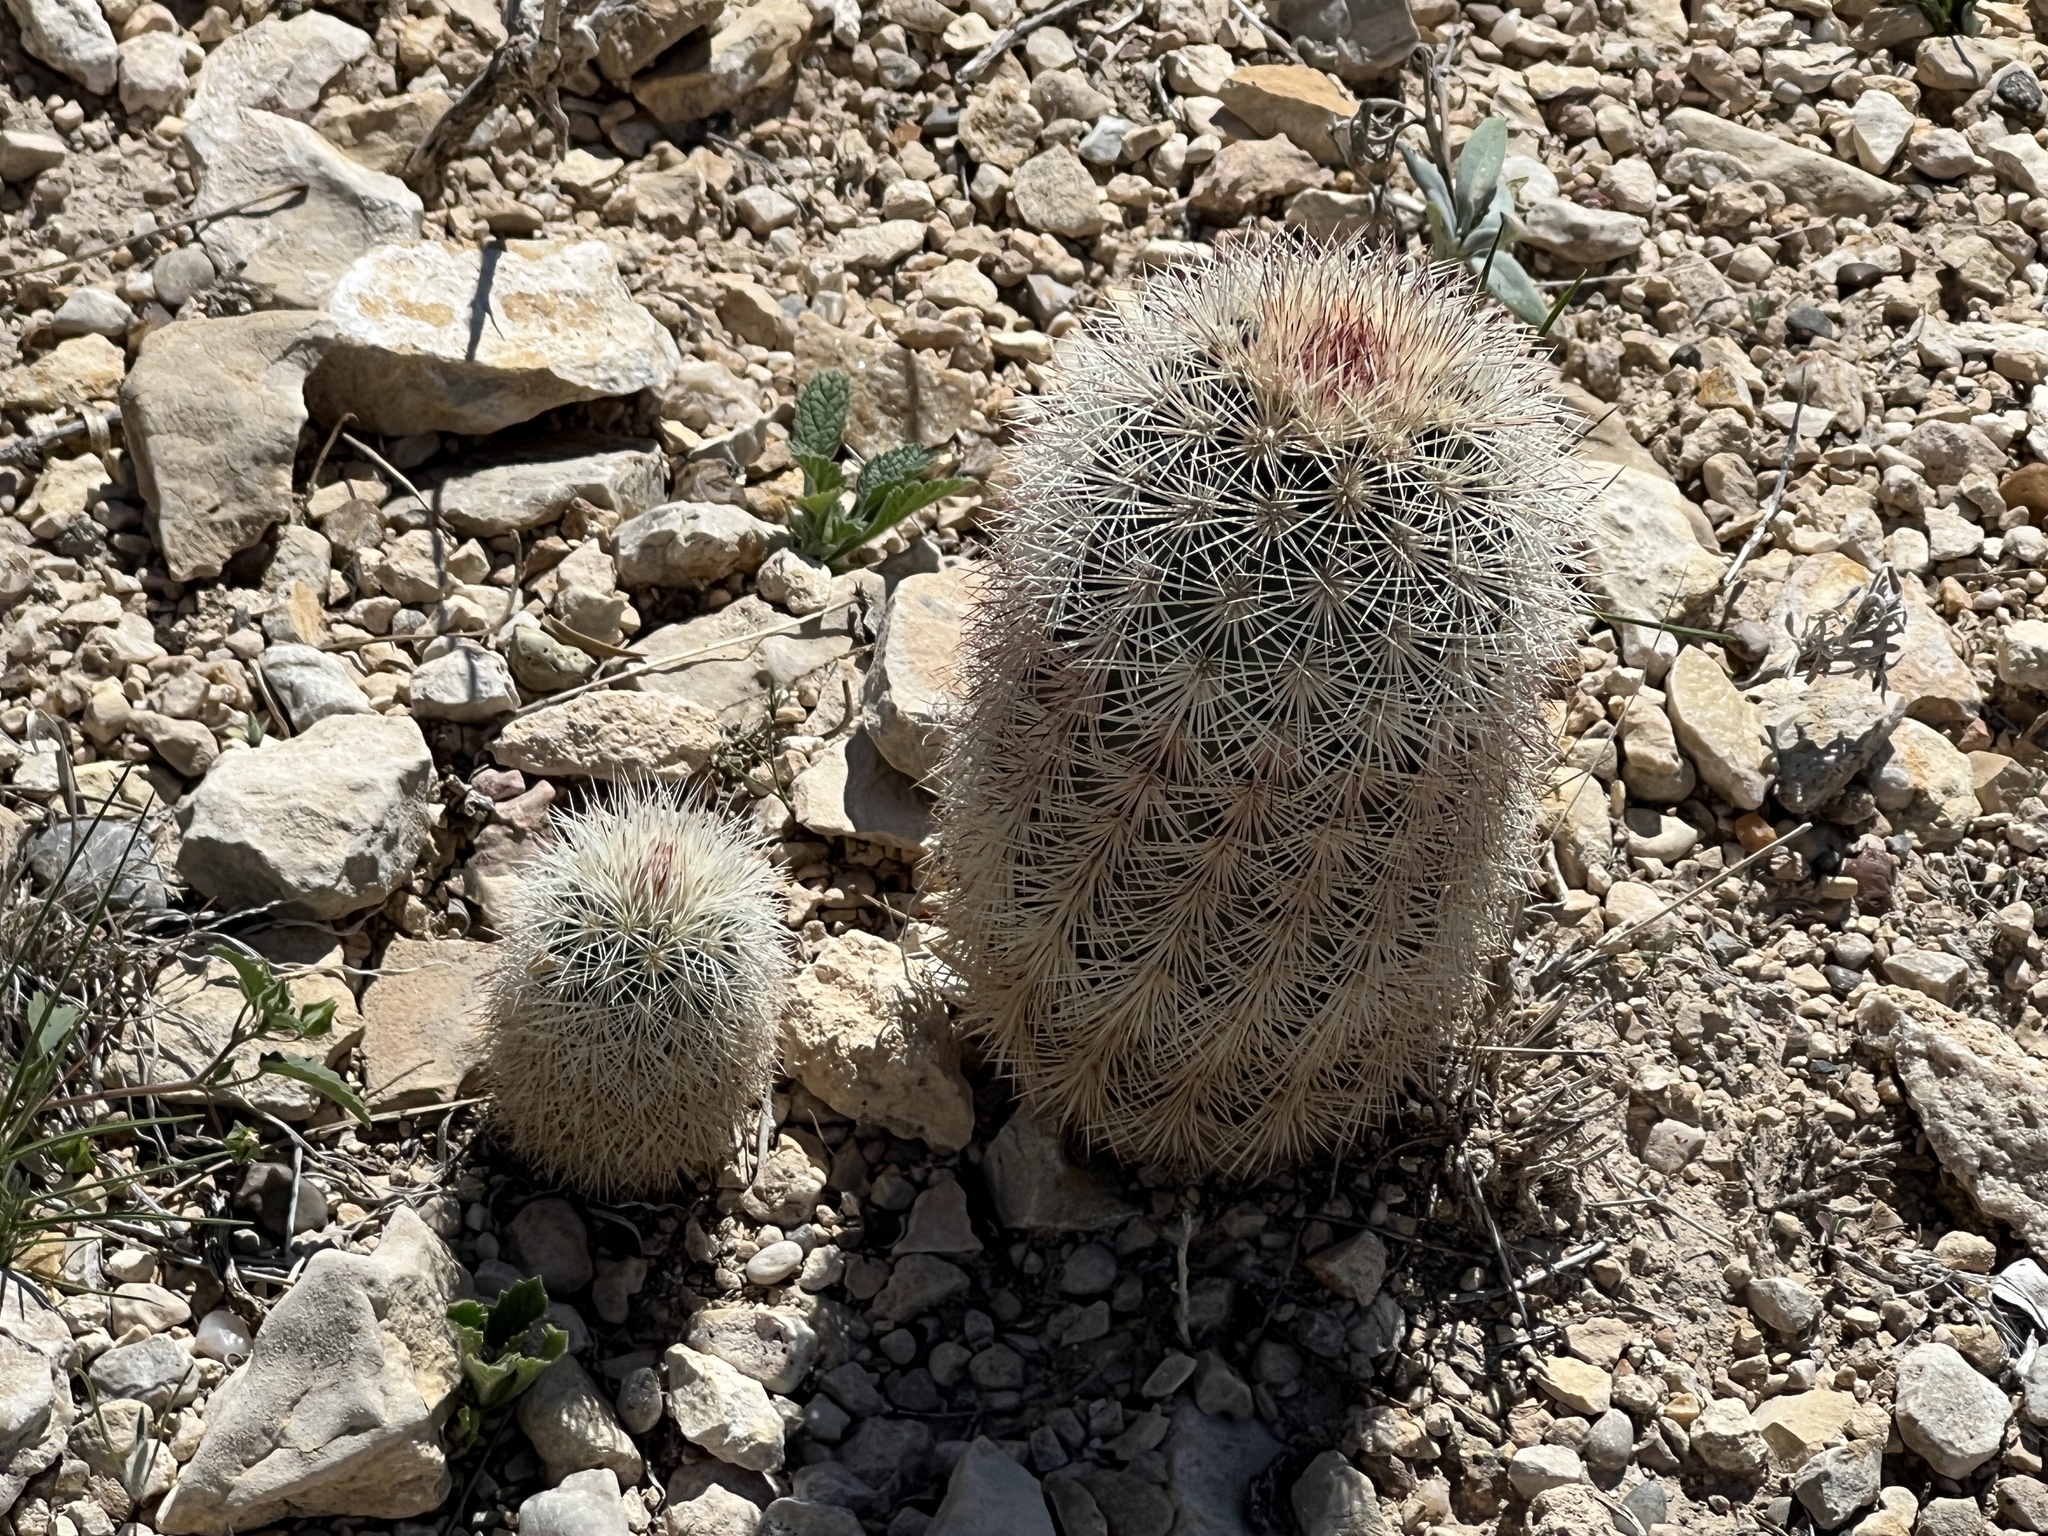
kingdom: Plantae
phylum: Tracheophyta
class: Magnoliopsida
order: Caryophyllales
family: Cactaceae
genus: Echinocereus
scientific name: Echinocereus dasyacanthus
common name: Spiny hedgehog cactus
